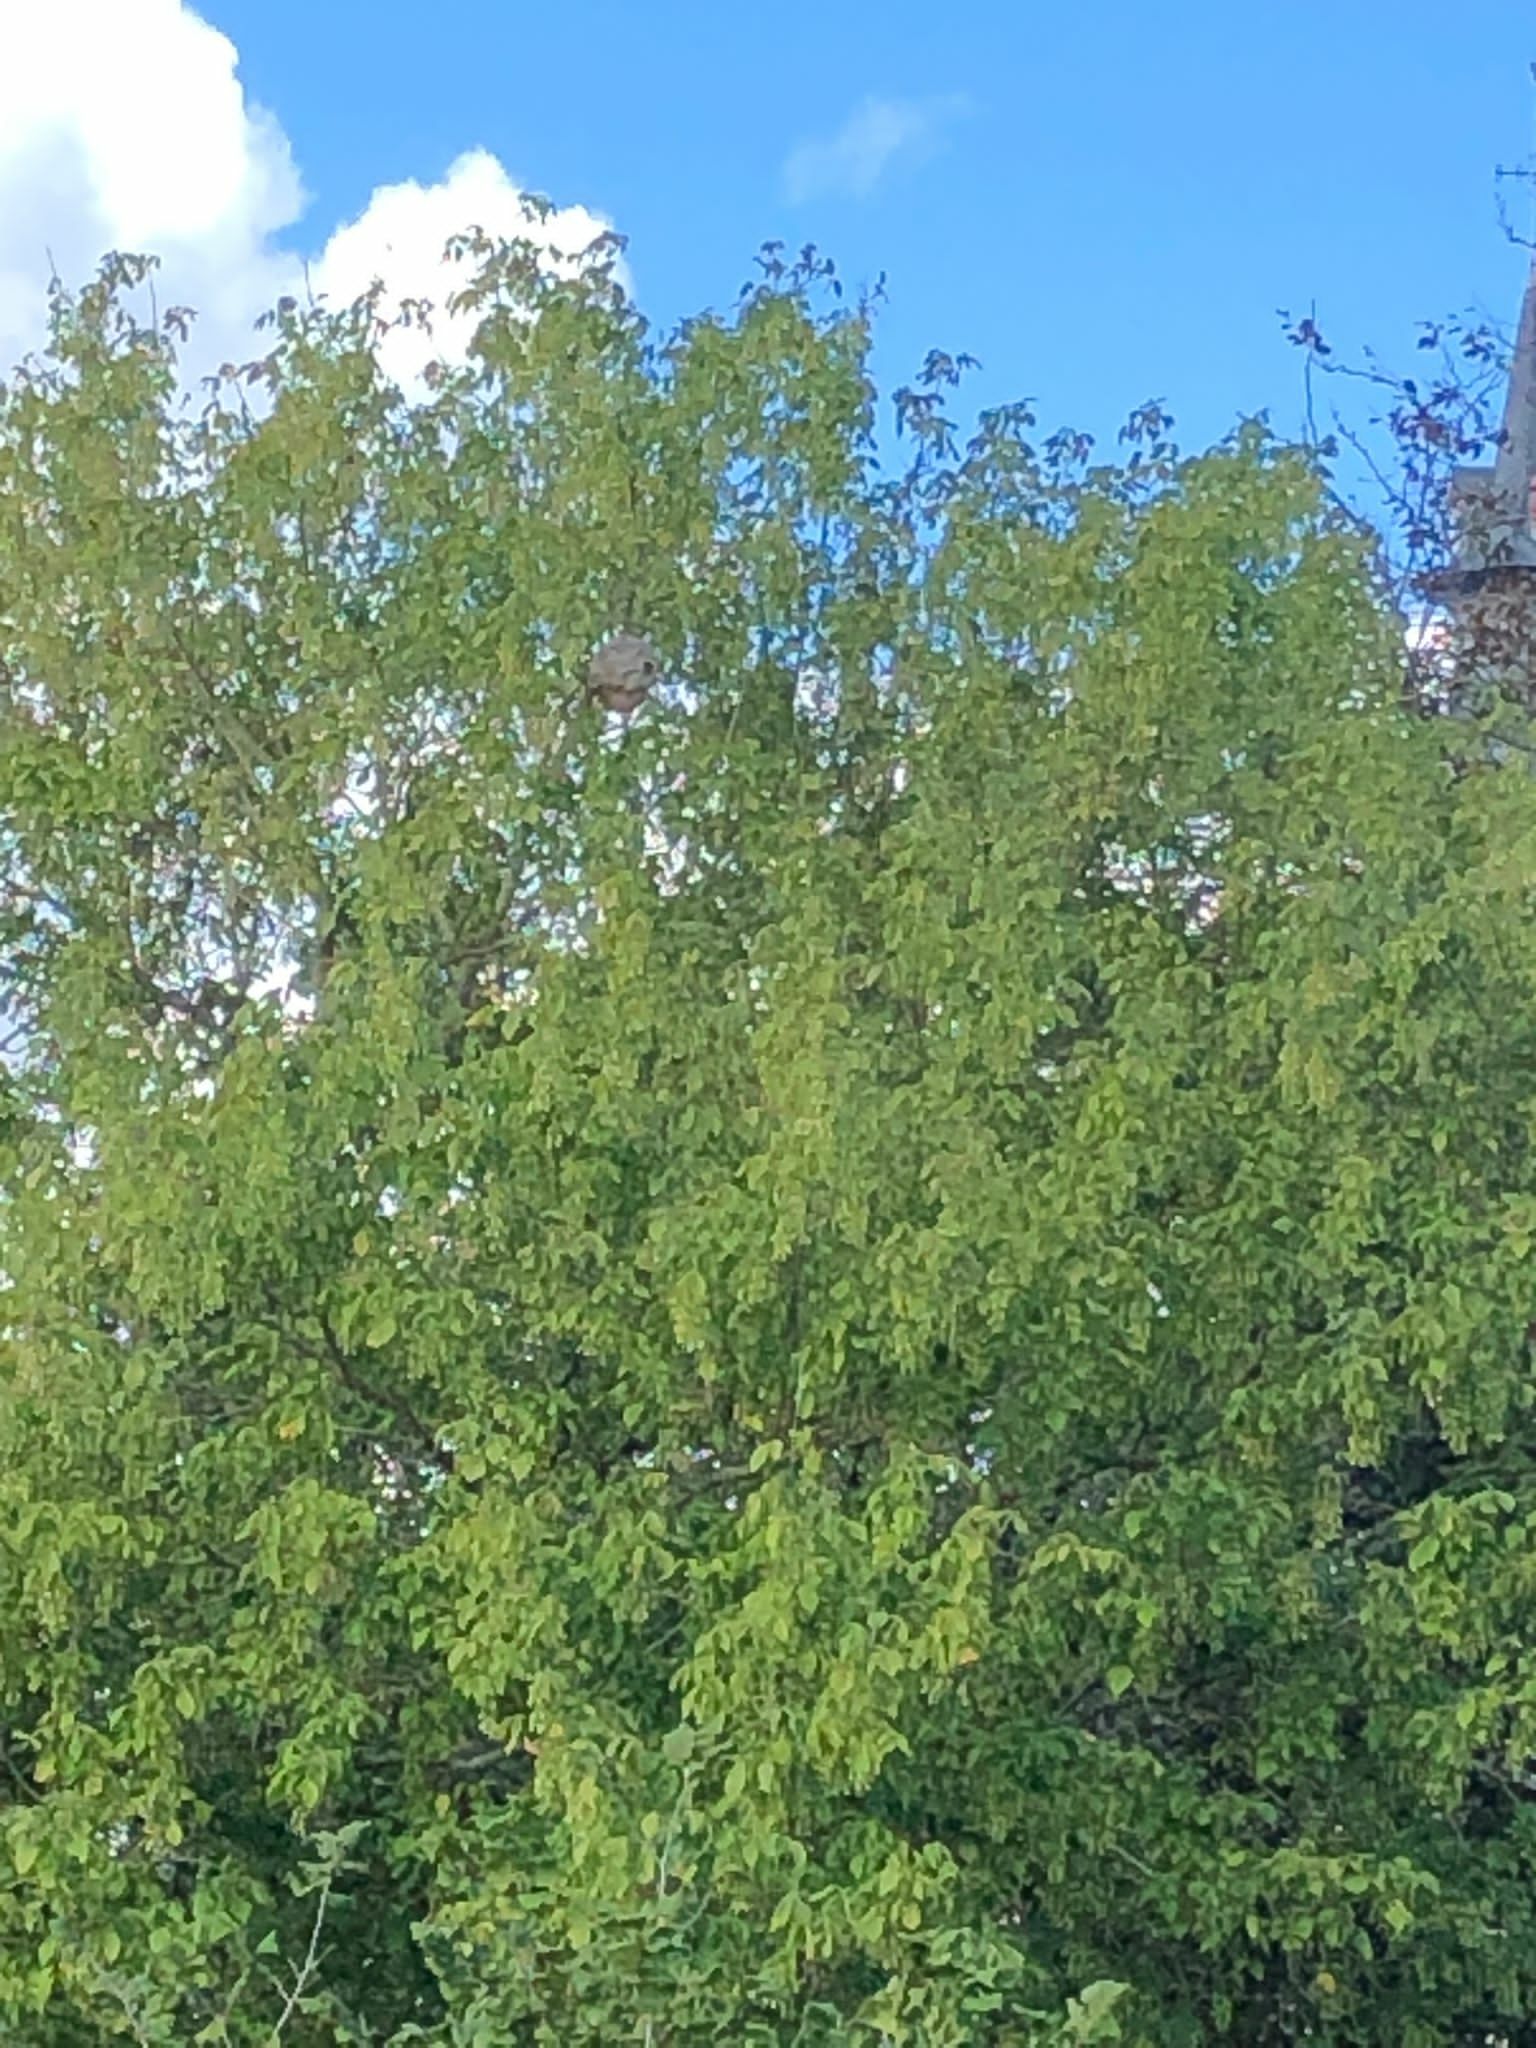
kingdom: Animalia
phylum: Arthropoda
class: Insecta
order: Hymenoptera
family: Vespidae
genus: Vespa
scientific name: Vespa velutina
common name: Asian hornet
